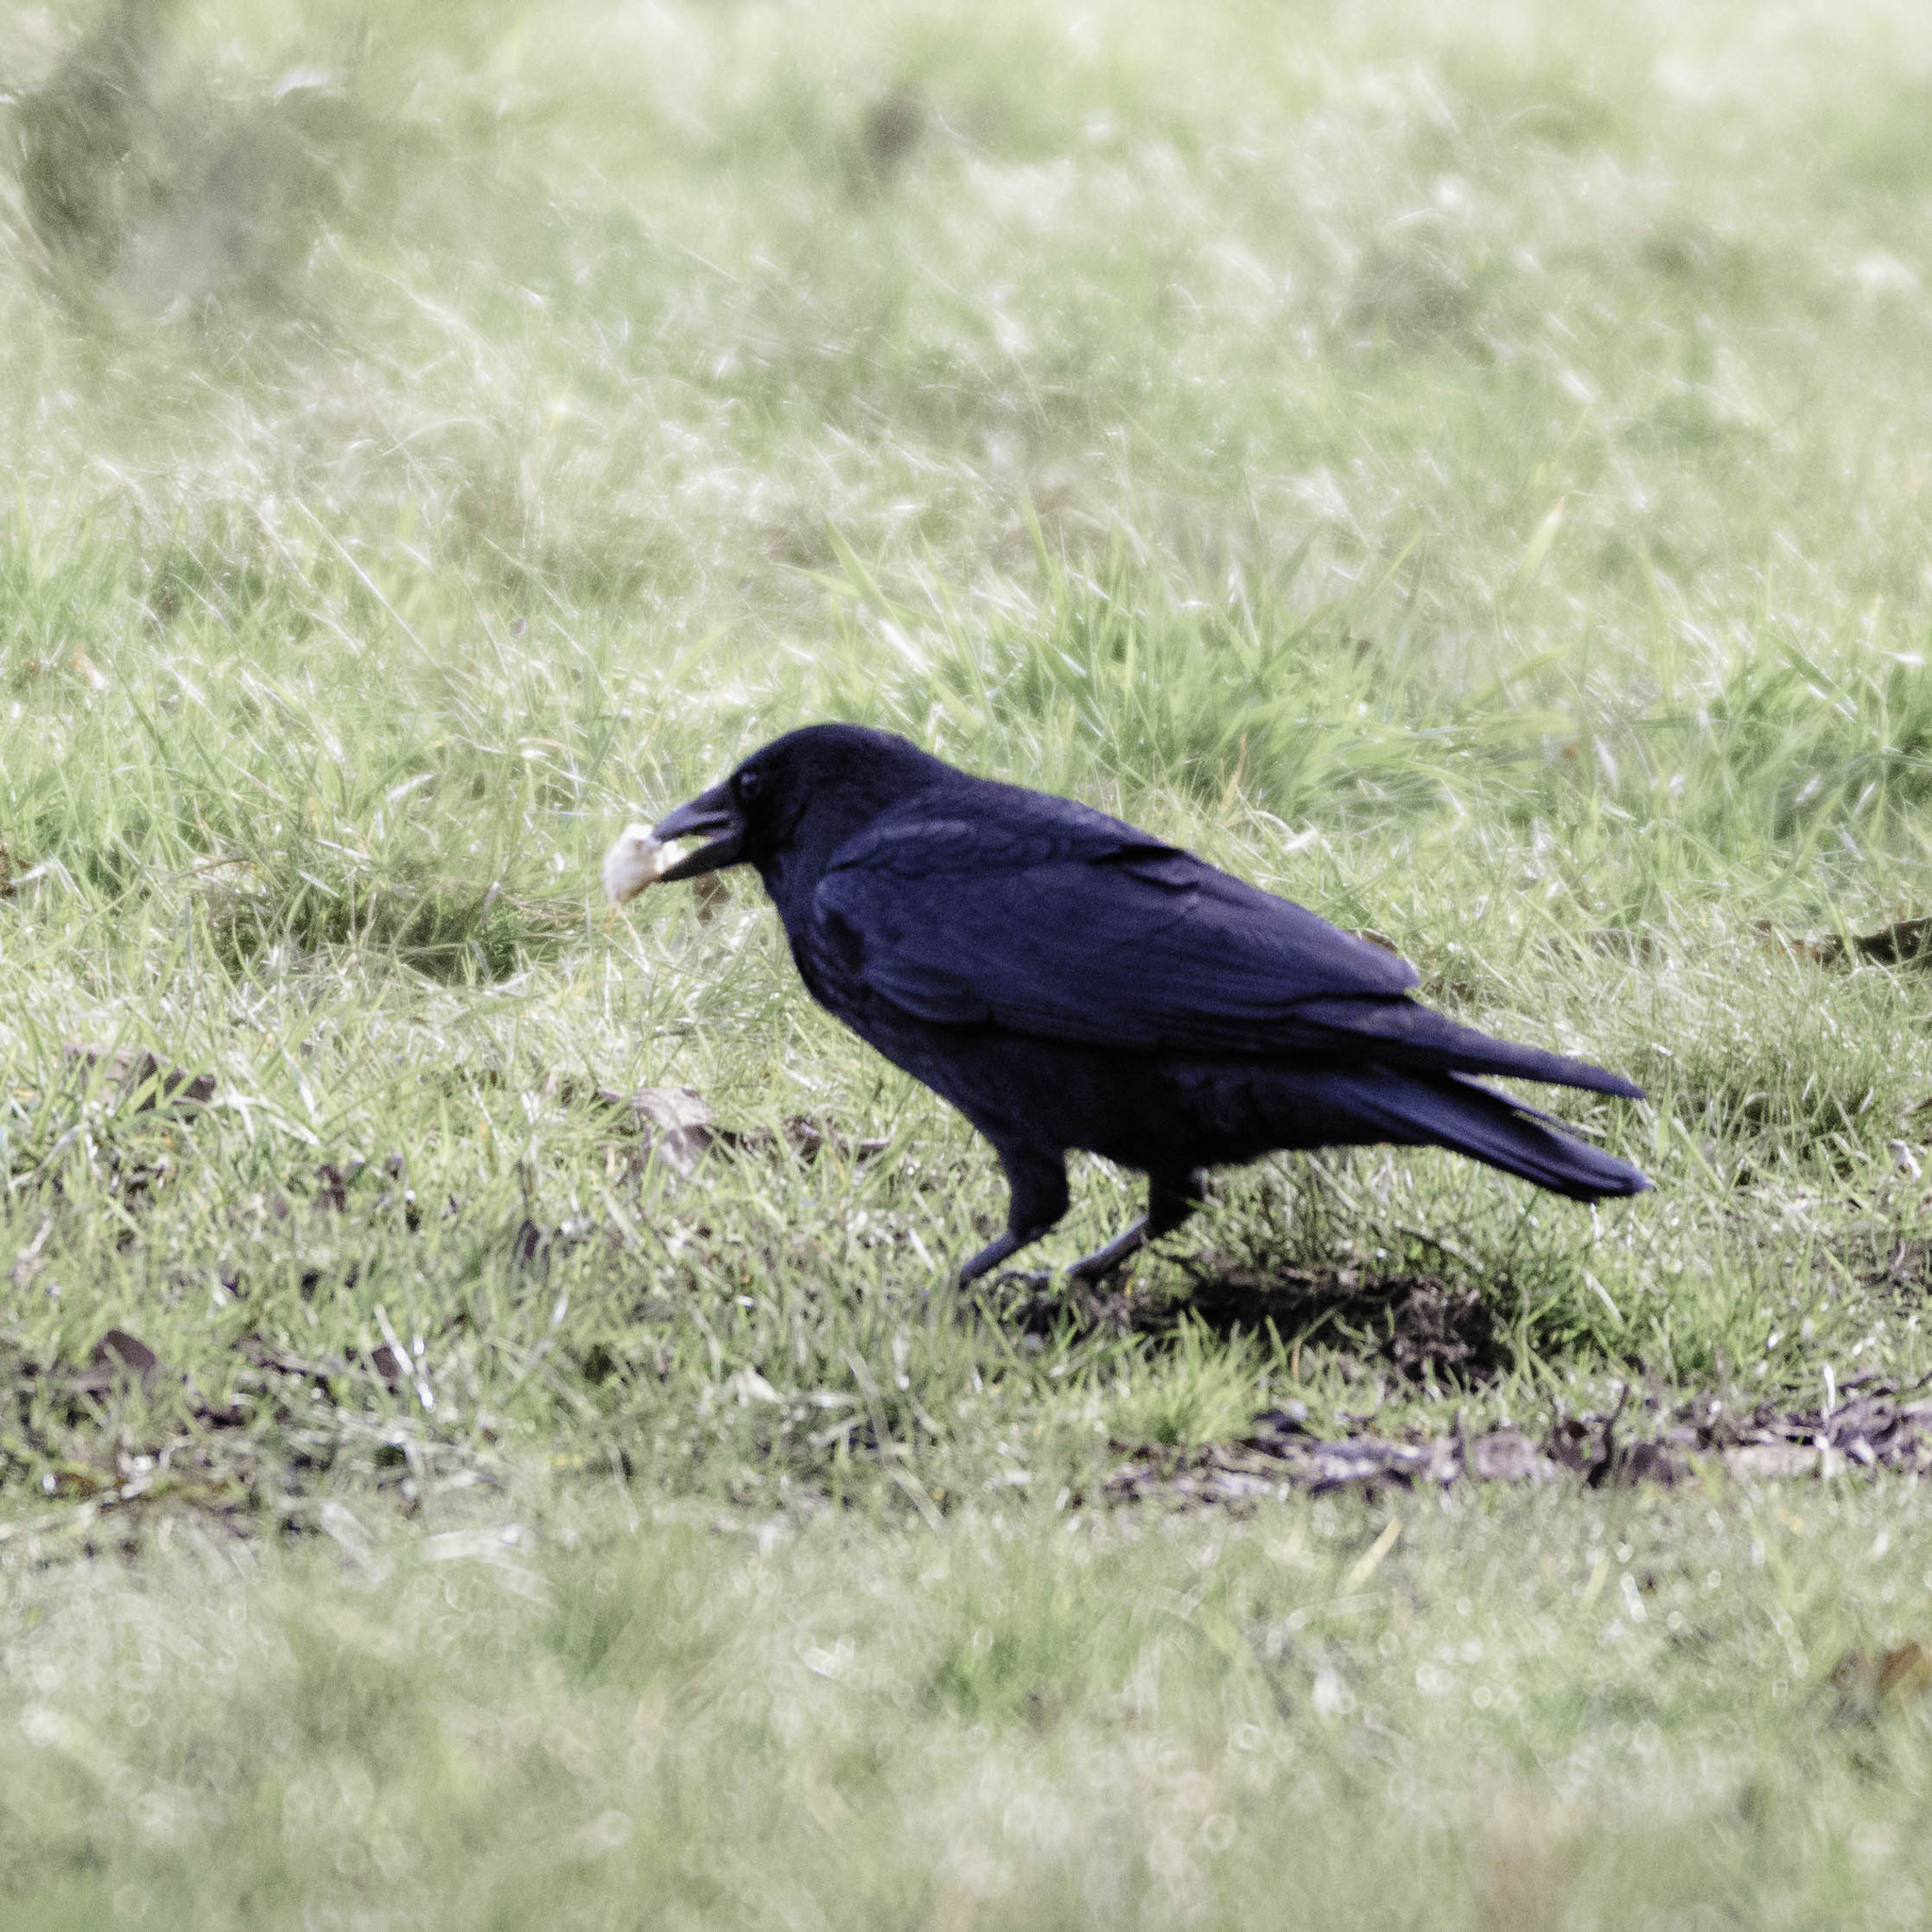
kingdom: Animalia
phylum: Chordata
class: Aves
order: Passeriformes
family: Corvidae
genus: Corvus
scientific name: Corvus corone
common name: Carrion crow
